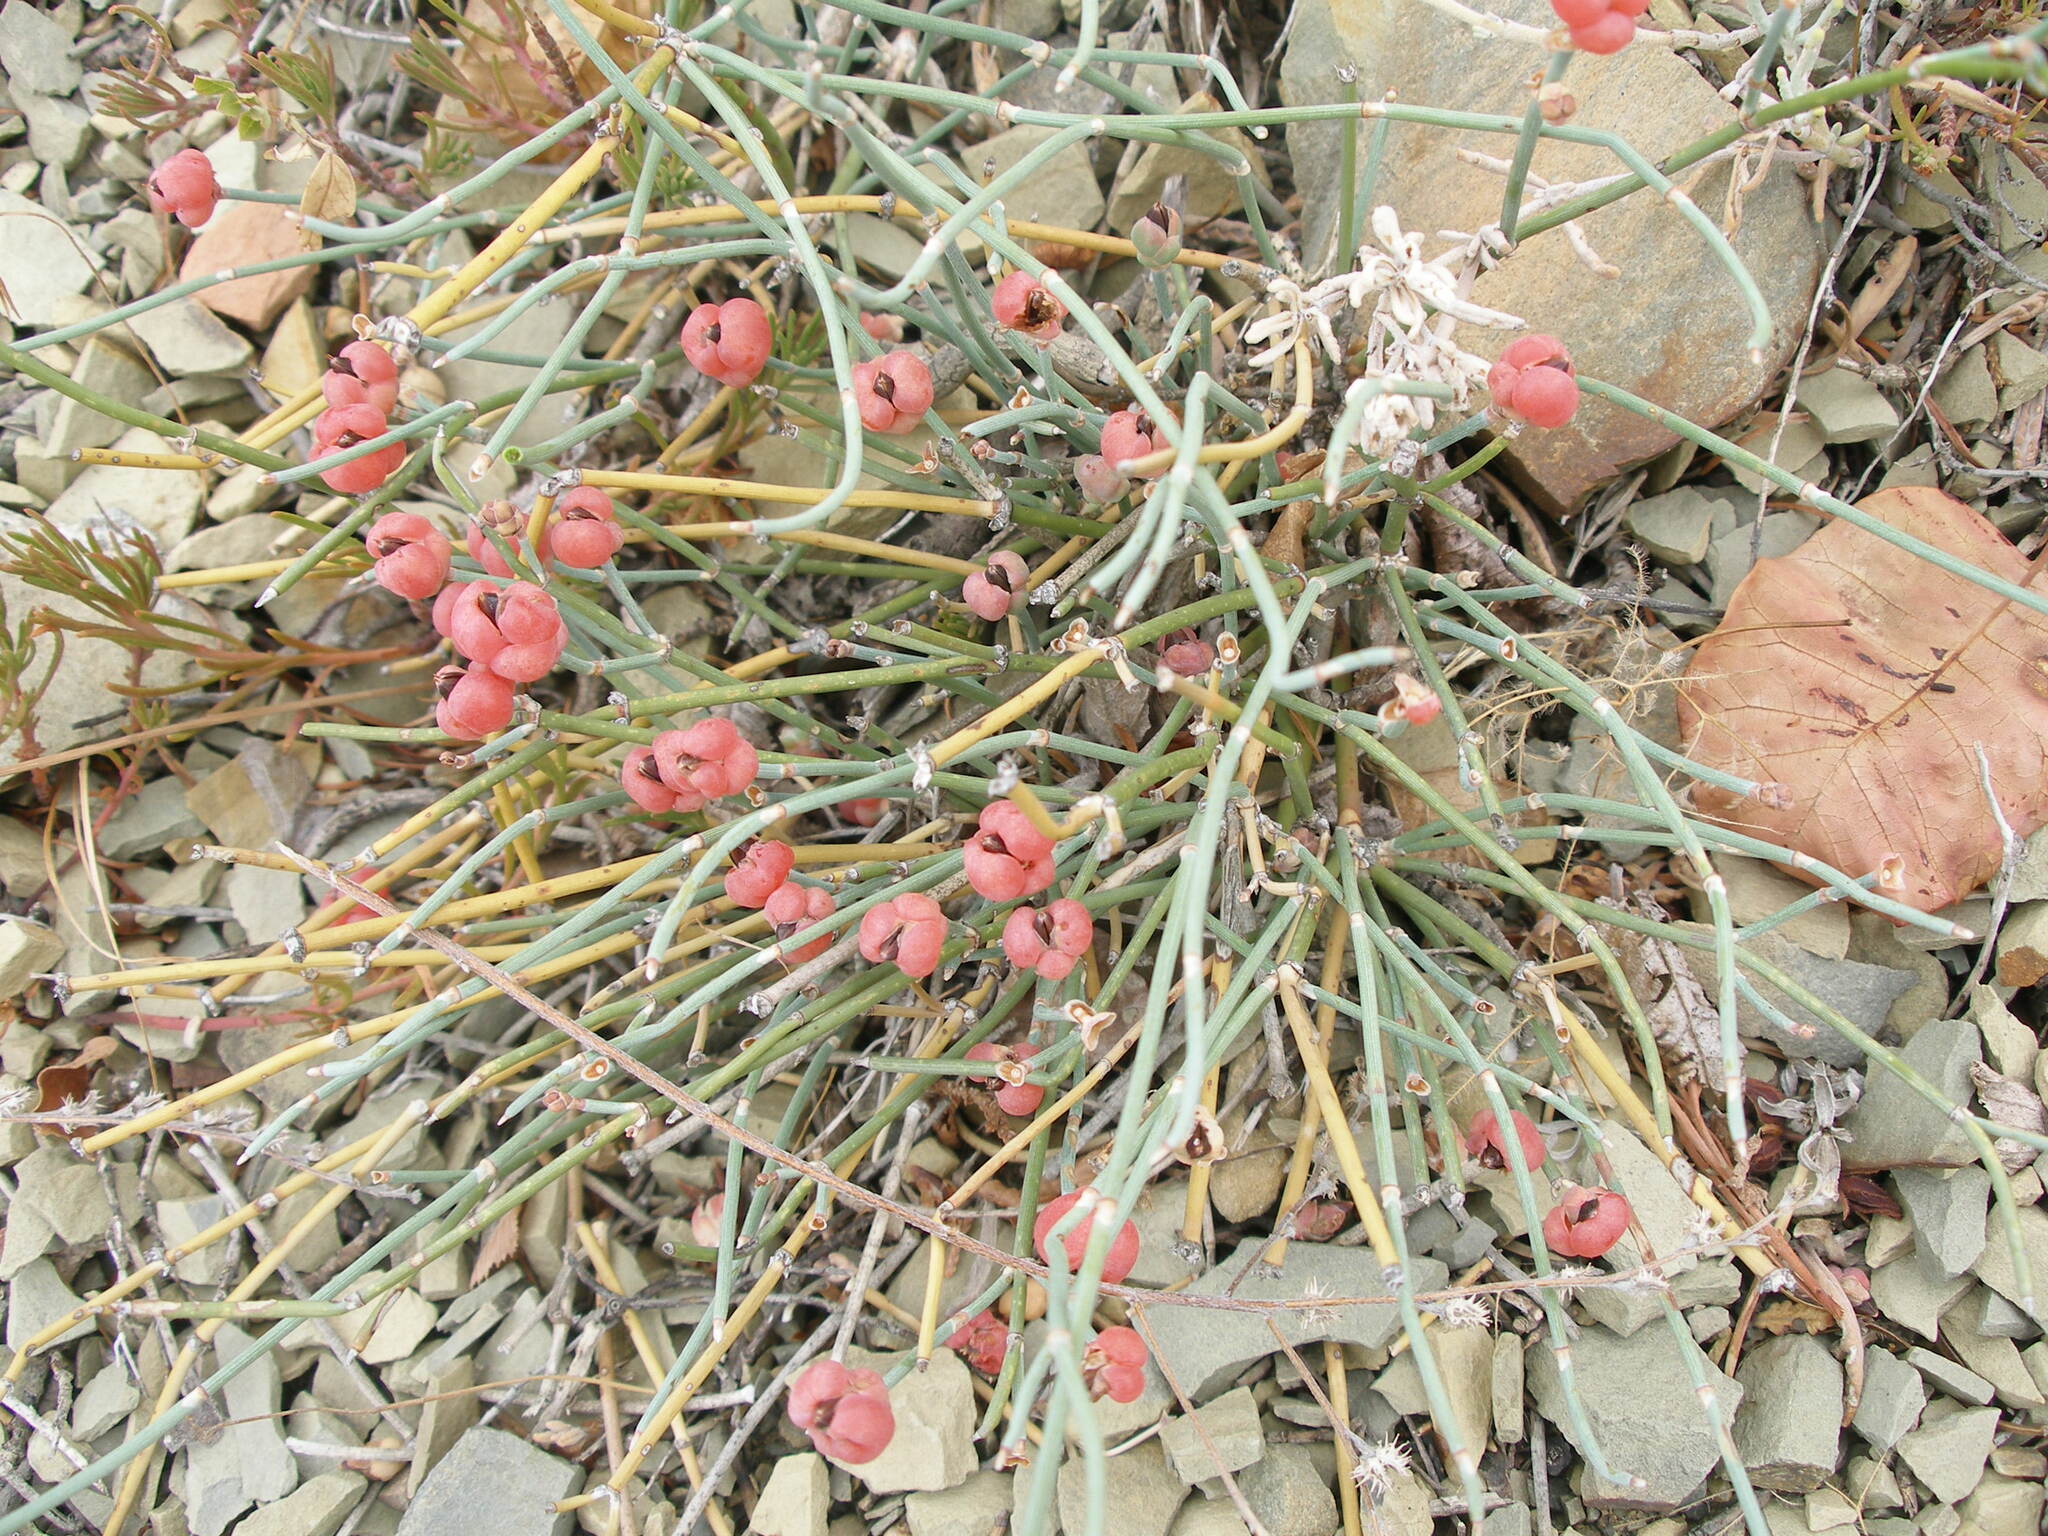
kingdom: Plantae
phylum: Tracheophyta
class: Gnetopsida
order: Ephedrales
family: Ephedraceae
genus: Ephedra
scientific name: Ephedra distachya
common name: Sea grape
